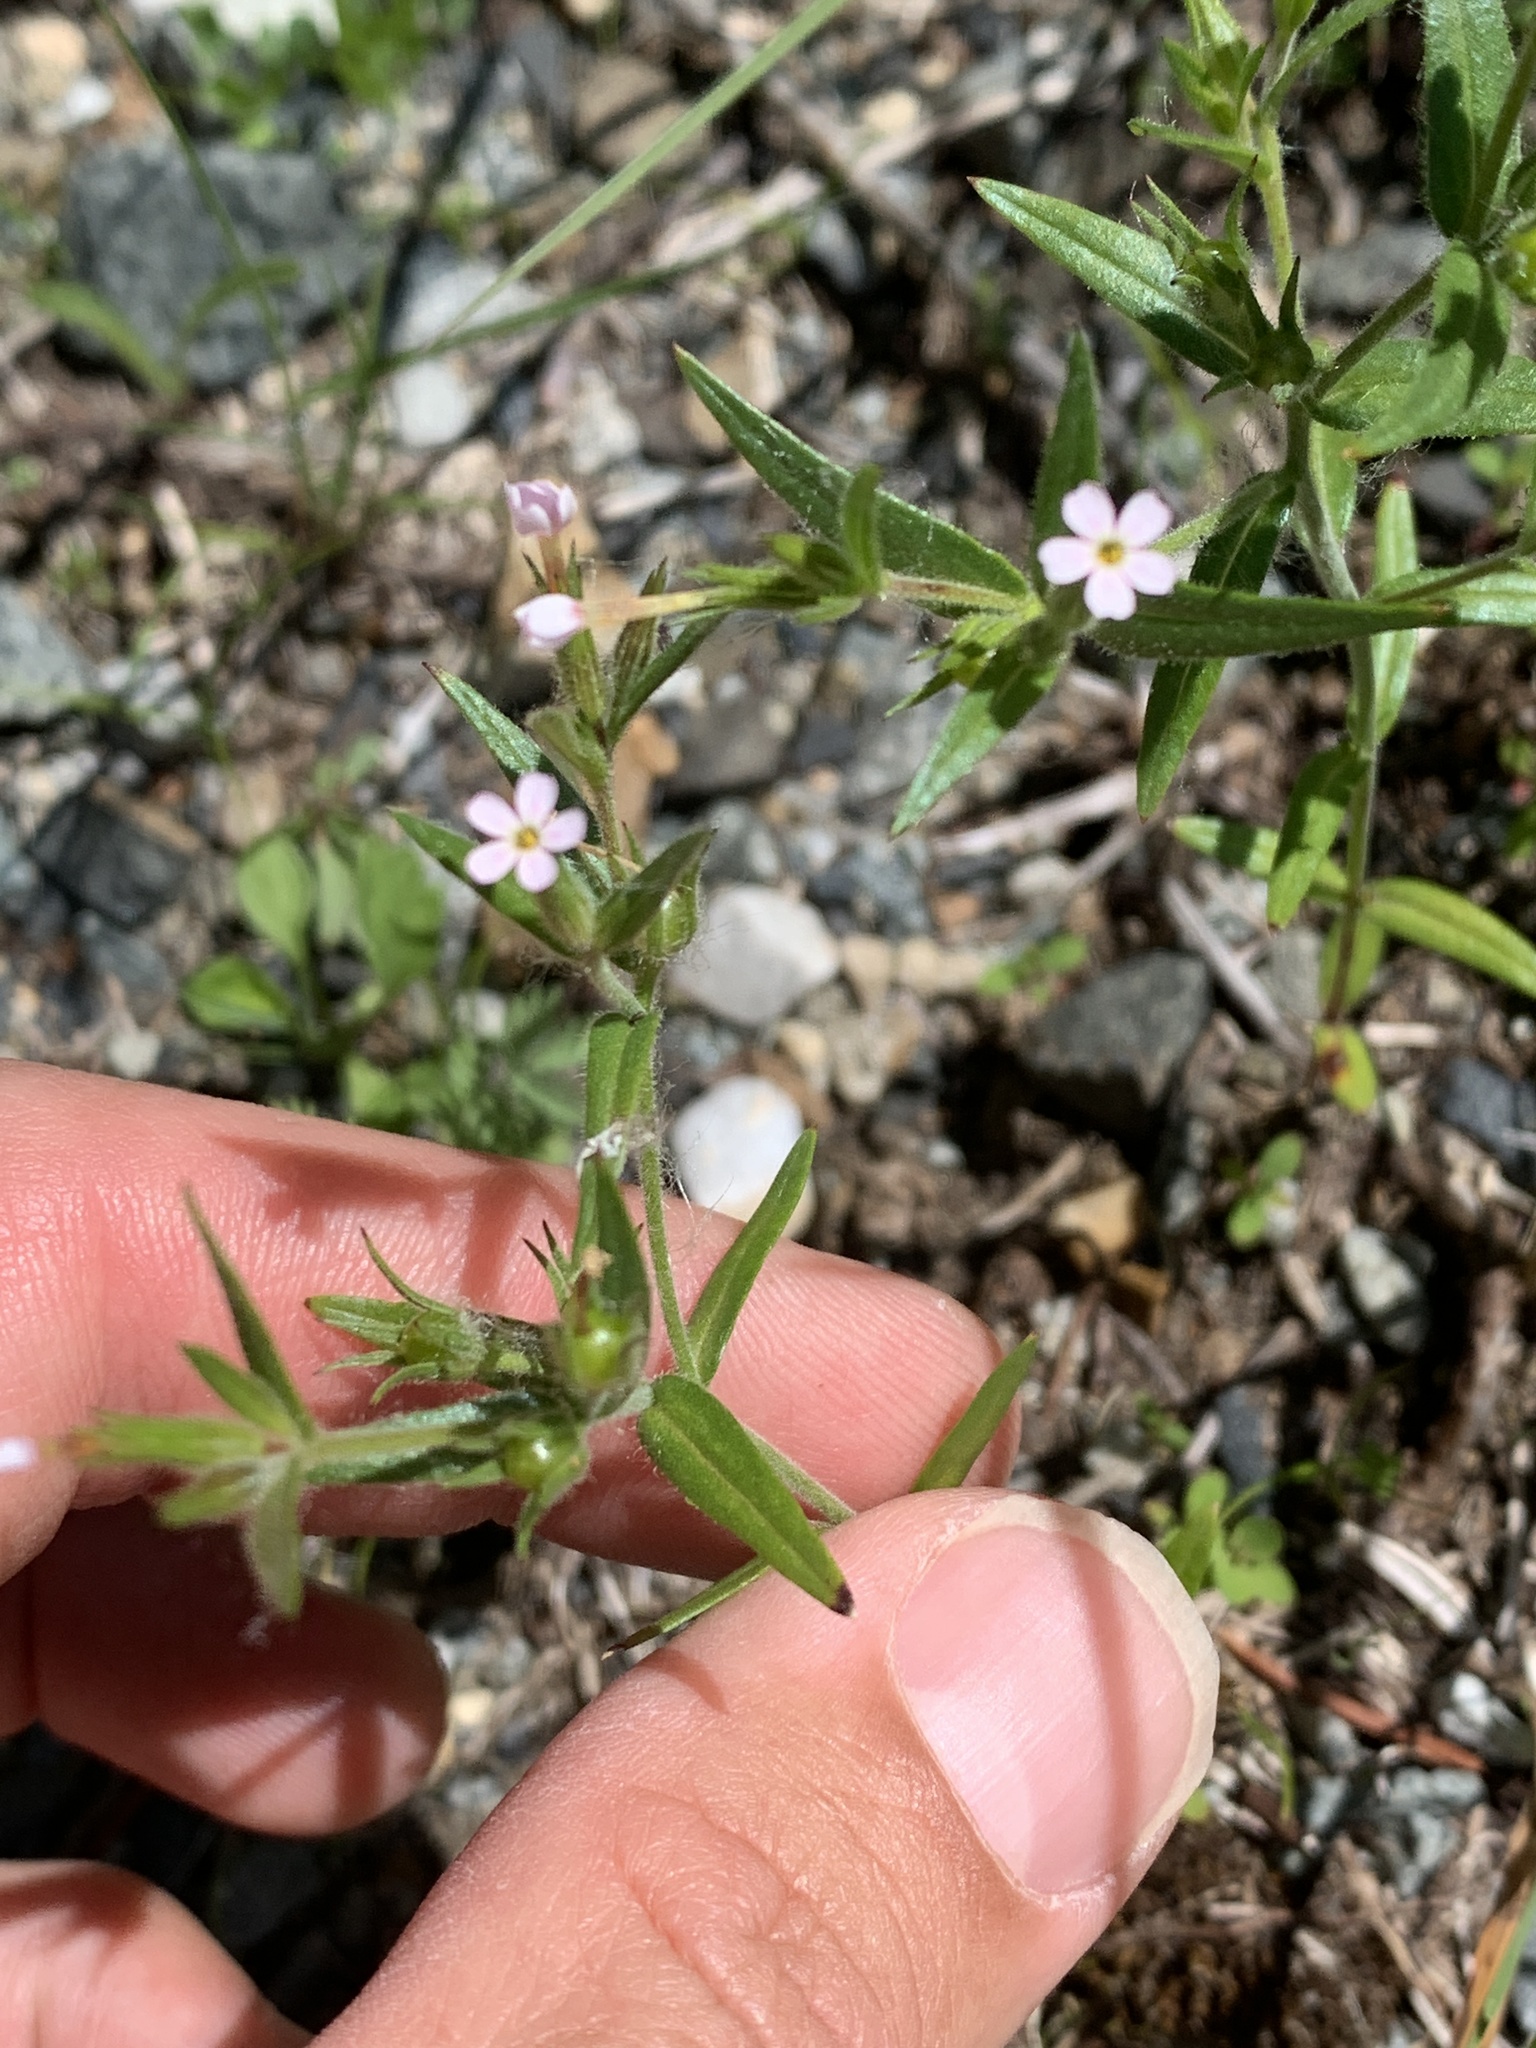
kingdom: Plantae
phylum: Tracheophyta
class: Magnoliopsida
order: Ericales
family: Polemoniaceae
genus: Phlox
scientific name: Phlox gracilis
